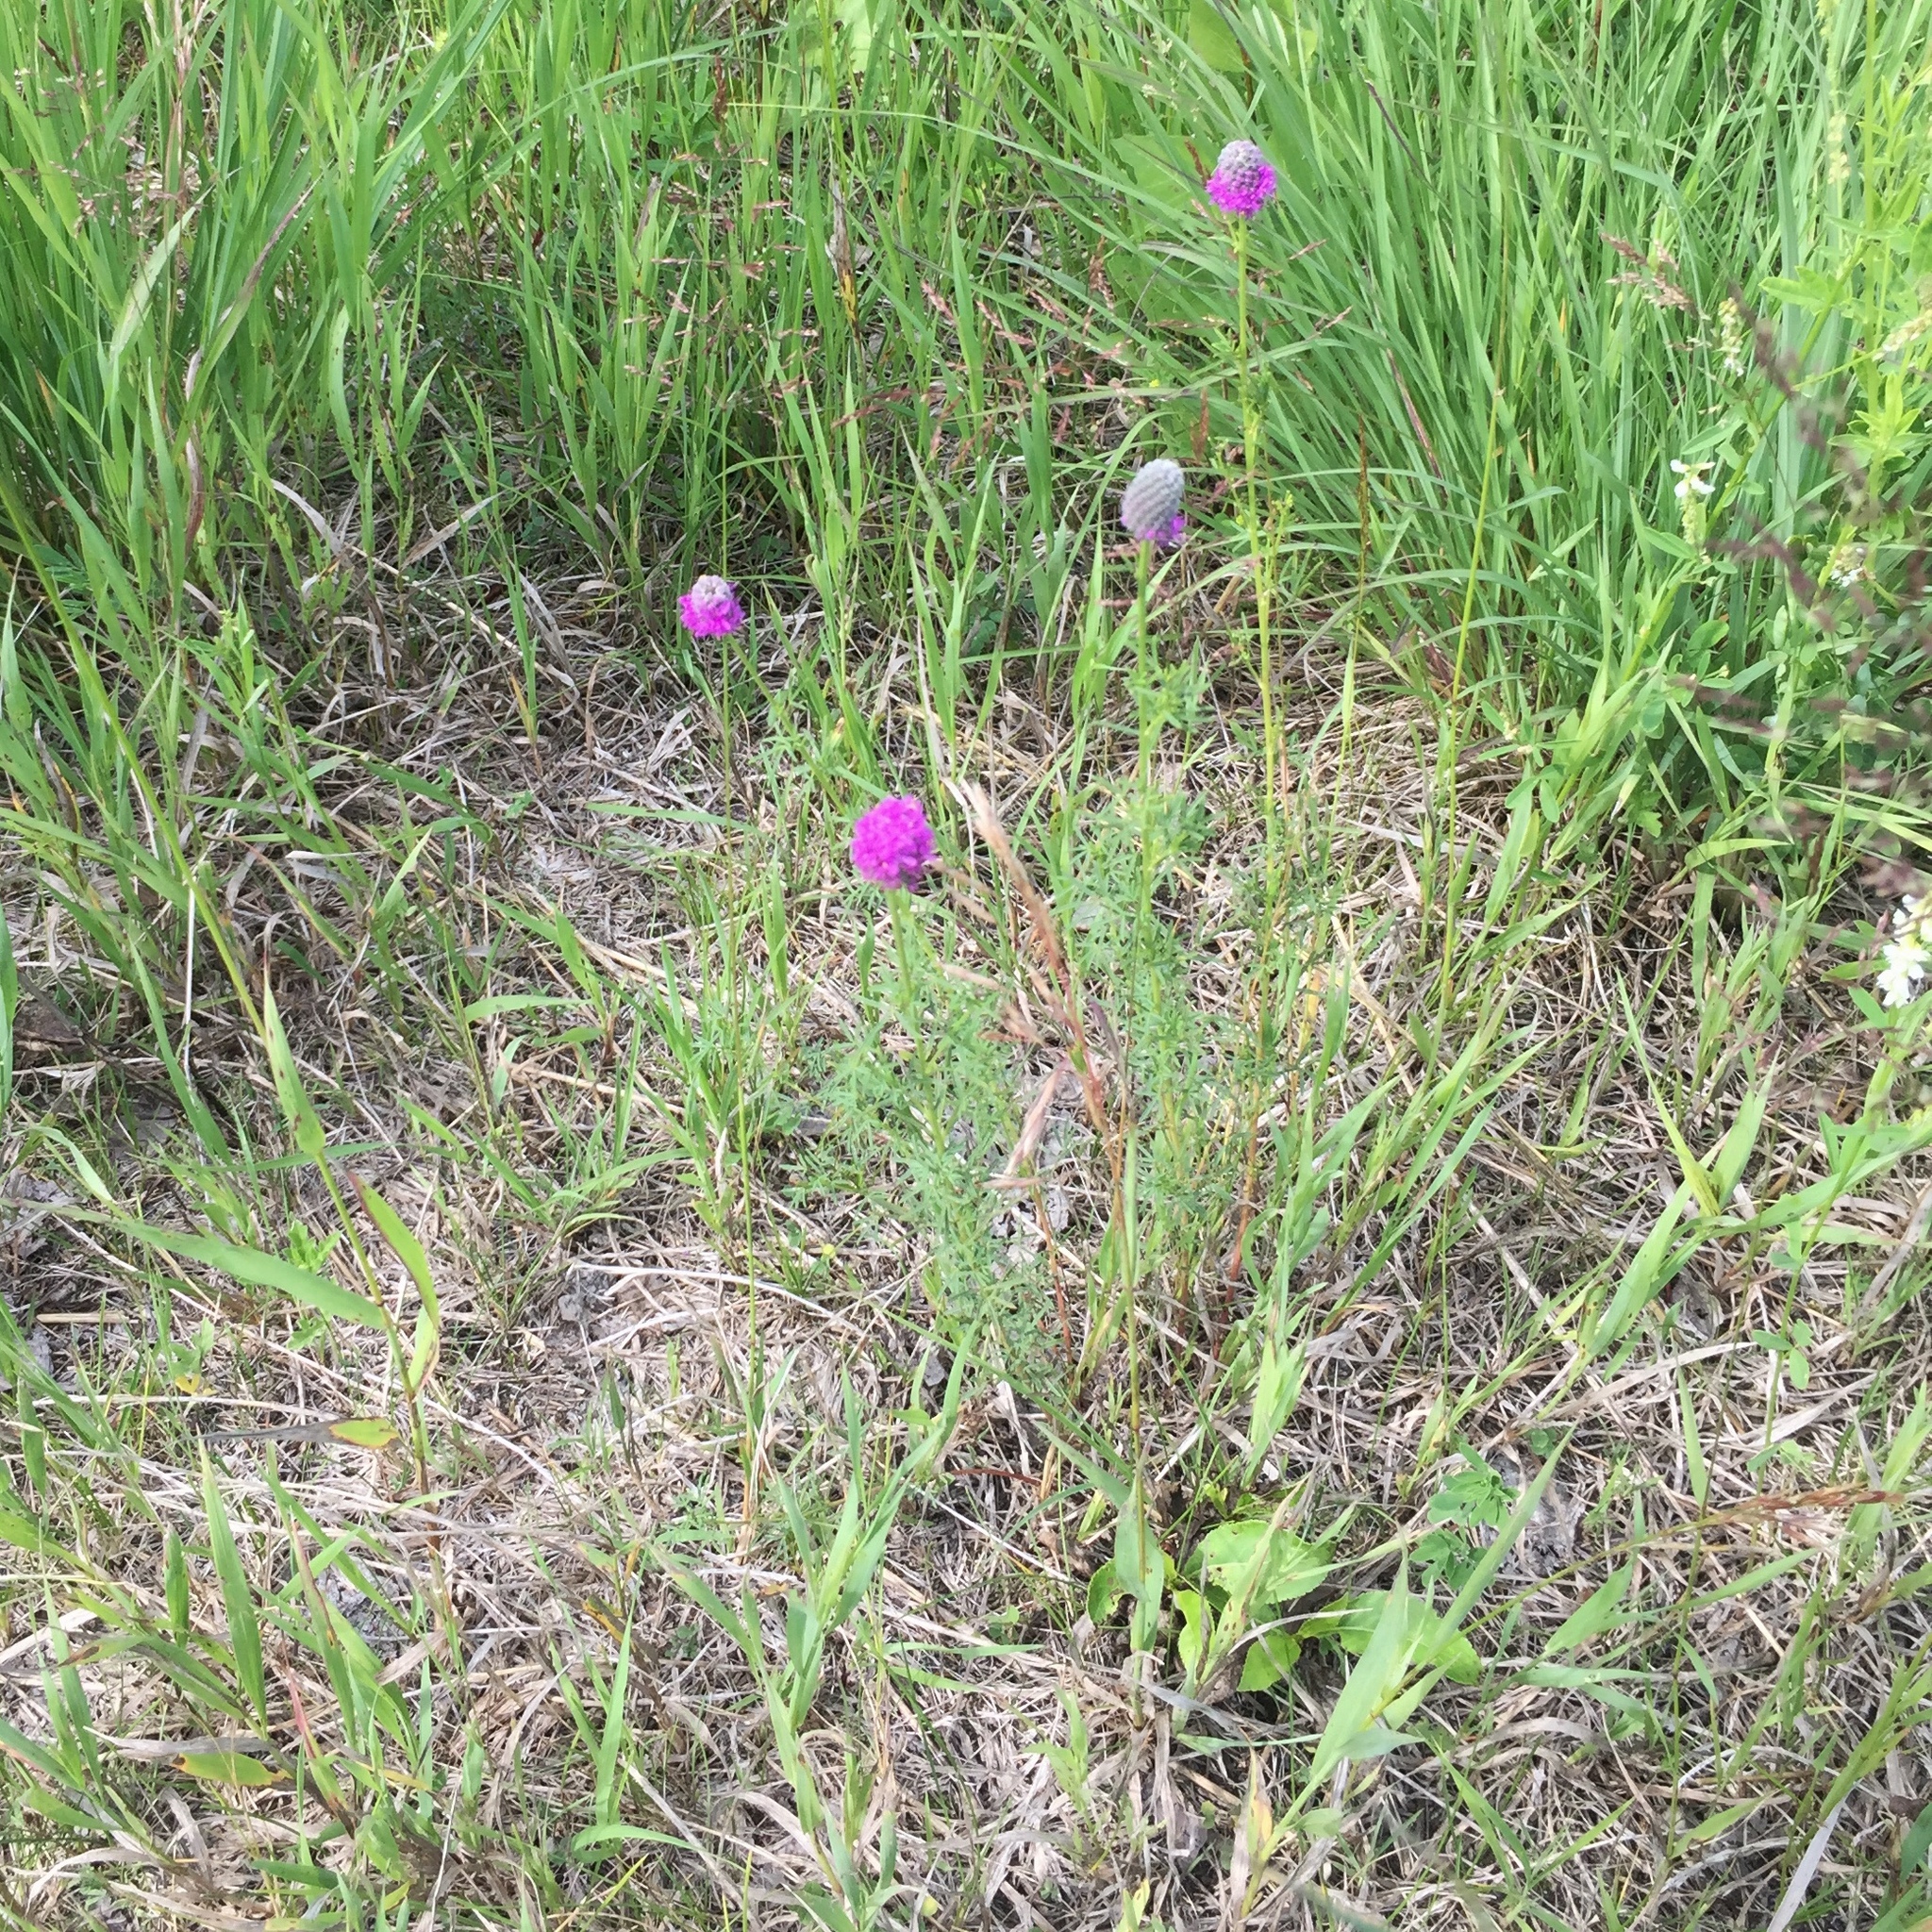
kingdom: Plantae
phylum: Tracheophyta
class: Magnoliopsida
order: Fabales
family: Fabaceae
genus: Dalea
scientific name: Dalea purpurea
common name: Purple prairie-clover
